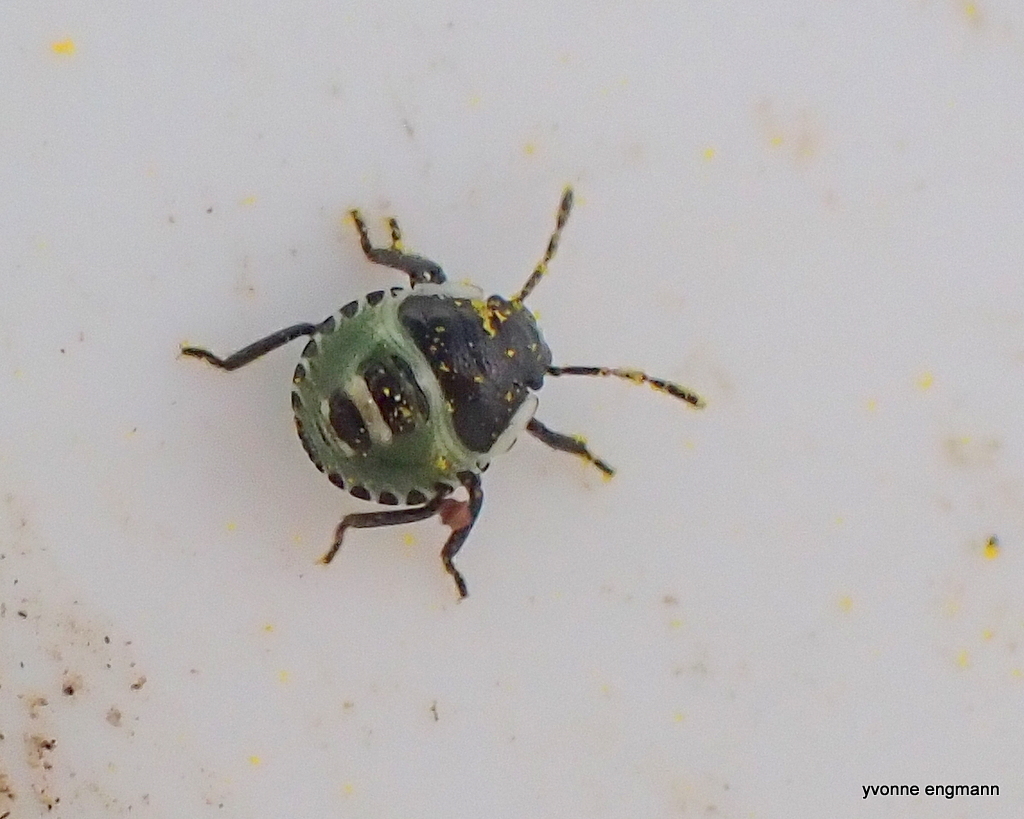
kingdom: Animalia
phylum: Arthropoda
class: Insecta
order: Hemiptera
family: Pentatomidae
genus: Palomena
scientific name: Palomena prasina
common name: Green shieldbug
